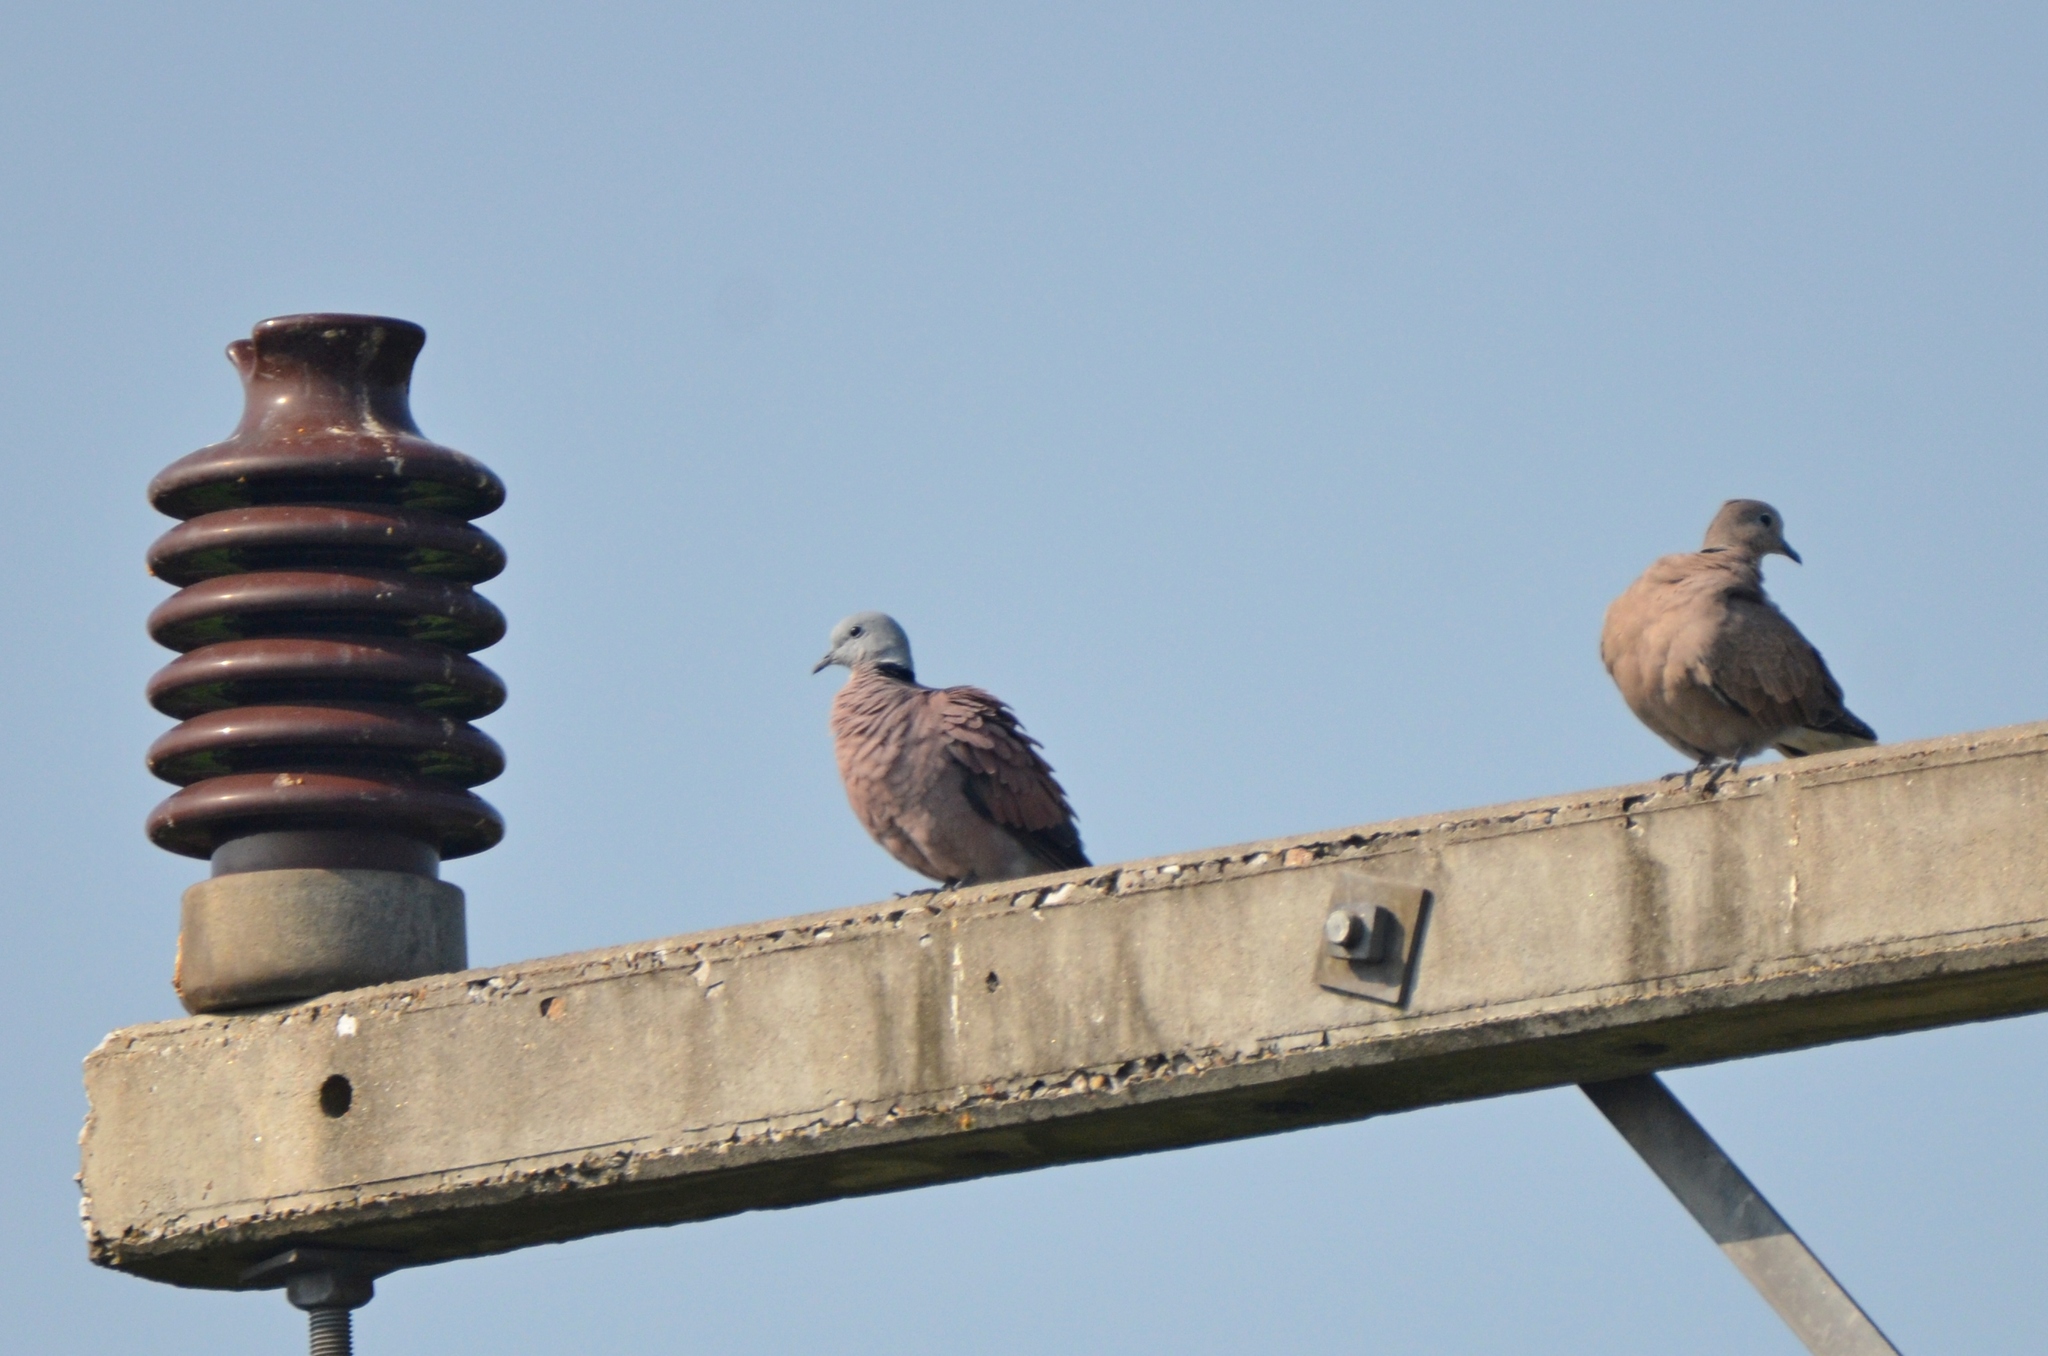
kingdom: Animalia
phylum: Chordata
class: Aves
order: Columbiformes
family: Columbidae
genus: Streptopelia
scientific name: Streptopelia tranquebarica
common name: Red turtle dove
